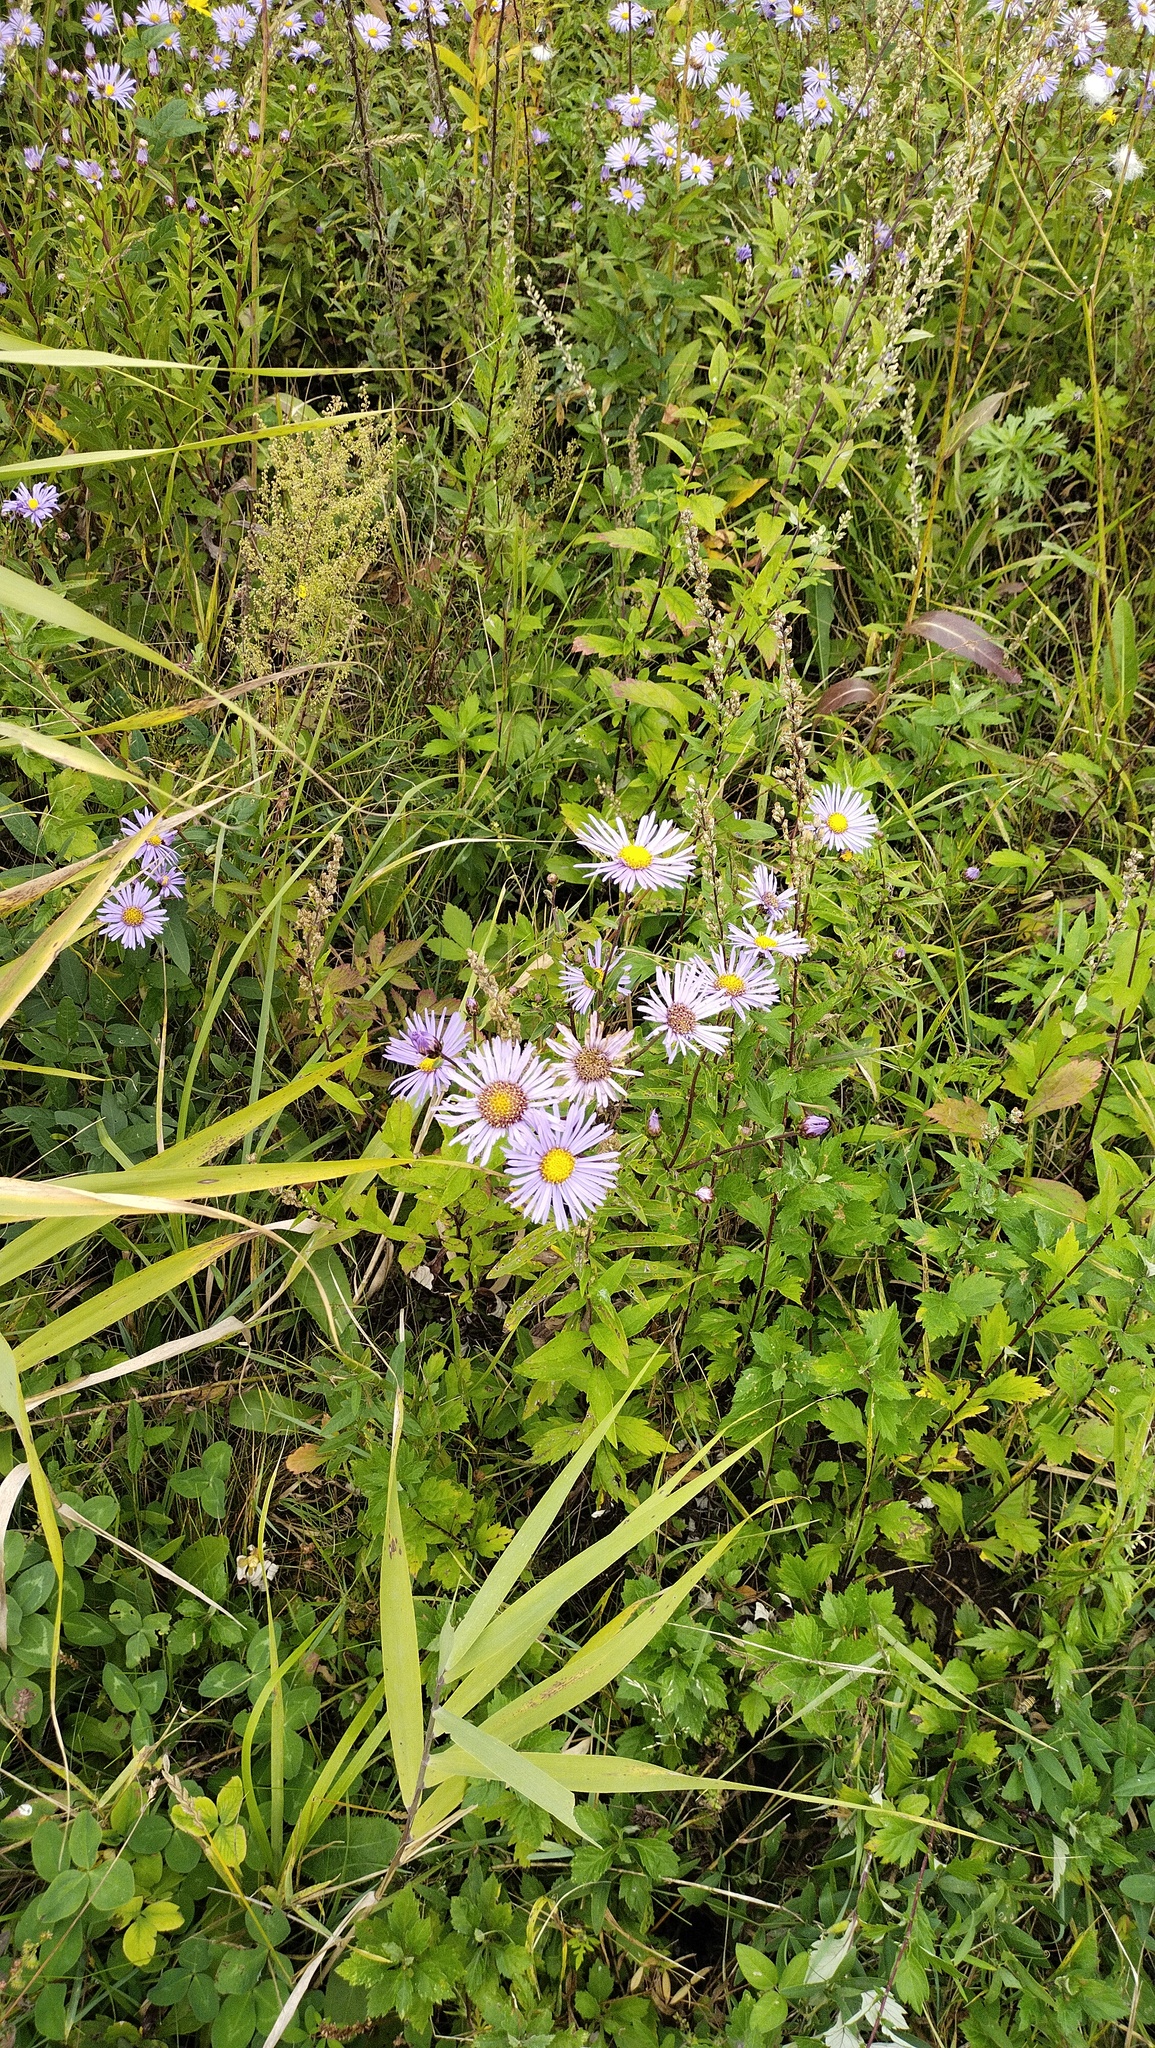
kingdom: Plantae
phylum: Tracheophyta
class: Magnoliopsida
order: Asterales
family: Asteraceae
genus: Aster
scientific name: Aster maackii
